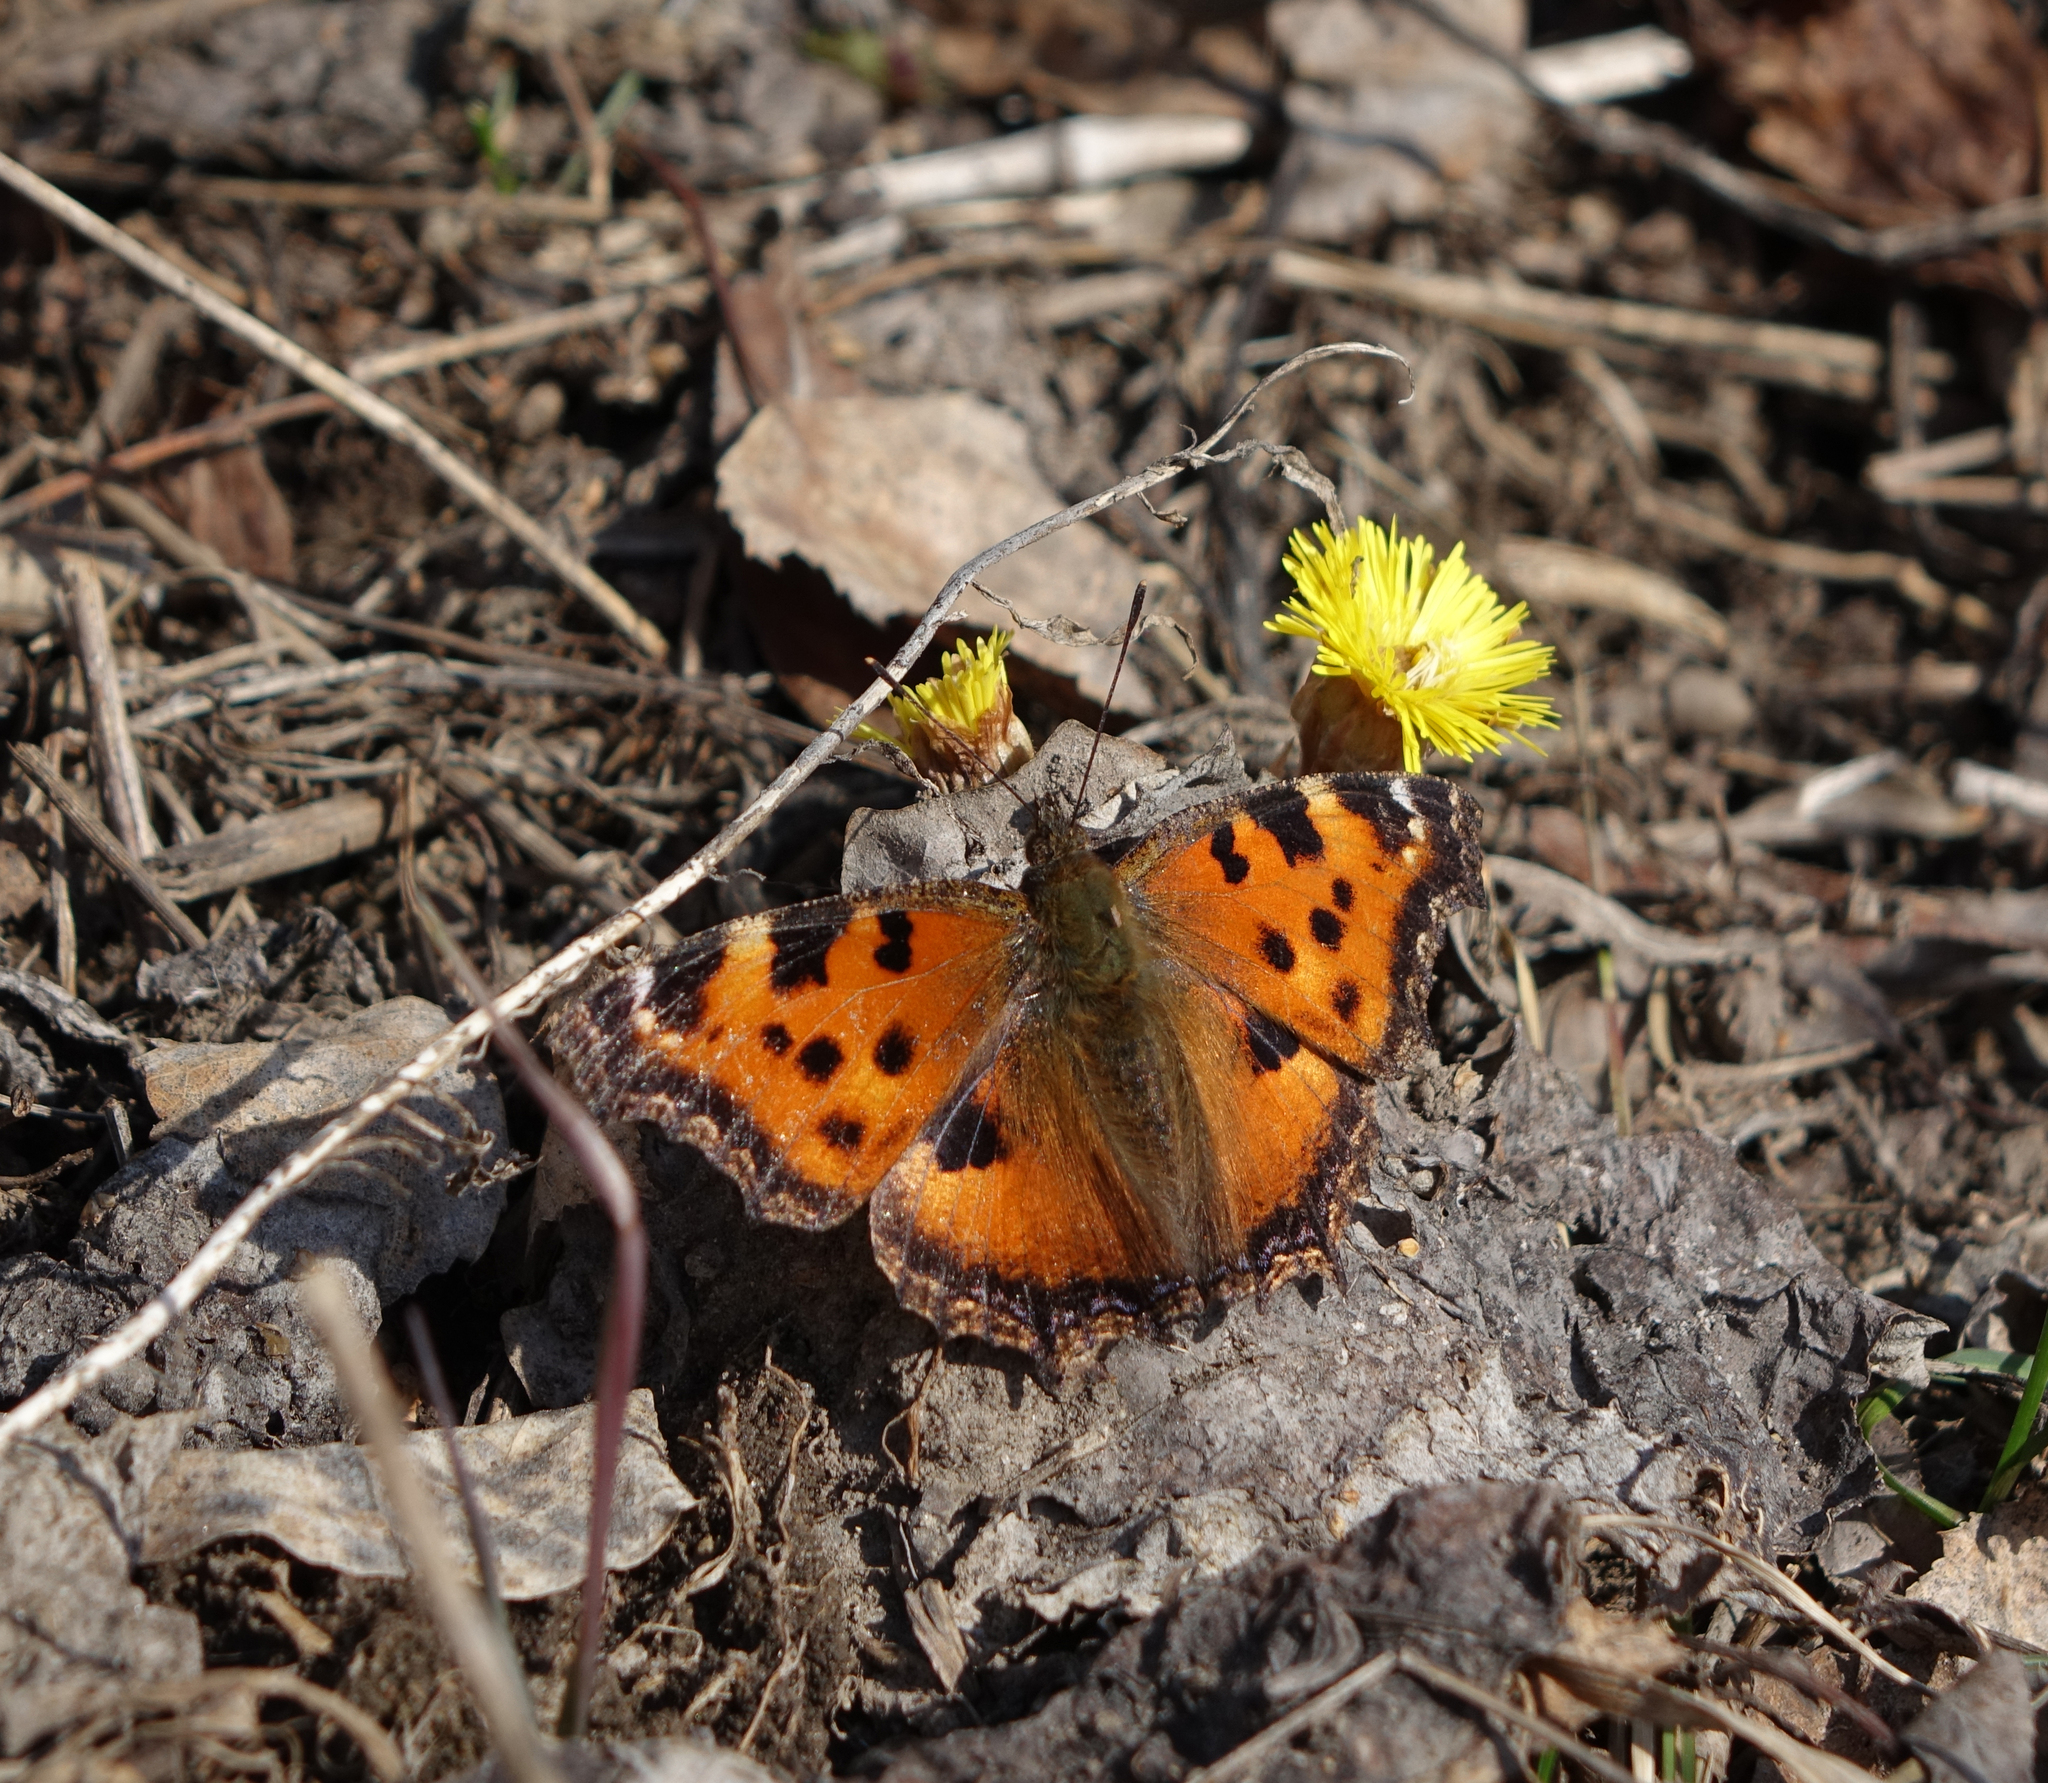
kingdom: Plantae
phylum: Tracheophyta
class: Magnoliopsida
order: Asterales
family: Asteraceae
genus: Tussilago
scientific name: Tussilago farfara
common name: Coltsfoot
